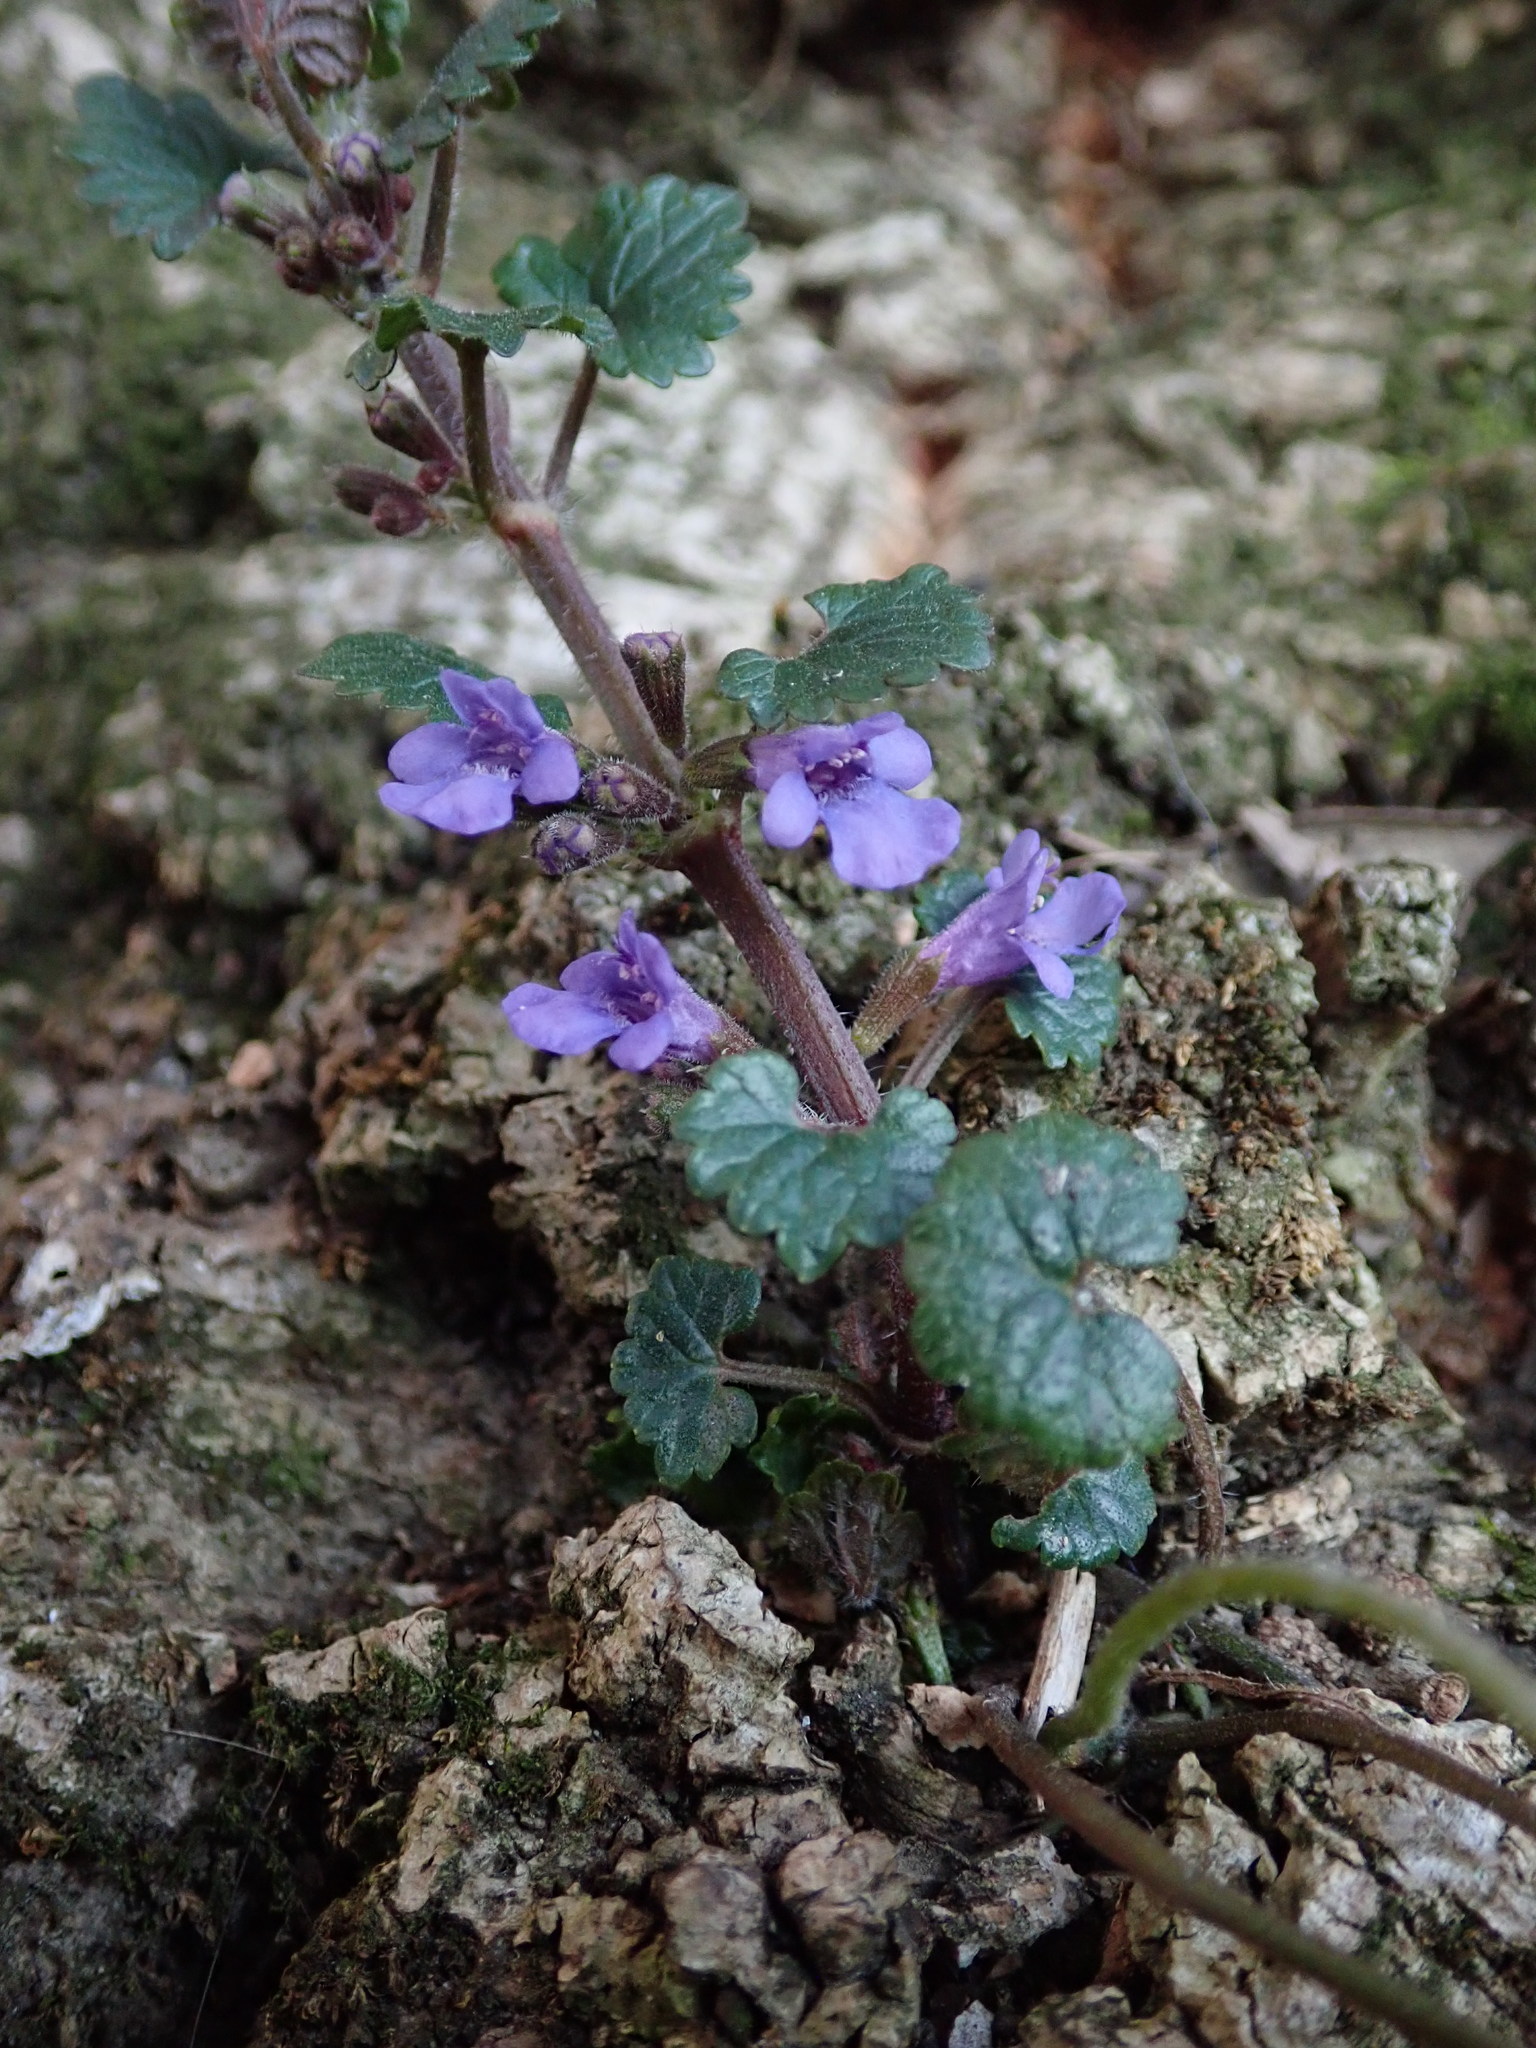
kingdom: Plantae
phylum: Tracheophyta
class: Magnoliopsida
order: Lamiales
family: Lamiaceae
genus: Glechoma
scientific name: Glechoma hederacea
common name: Ground ivy
